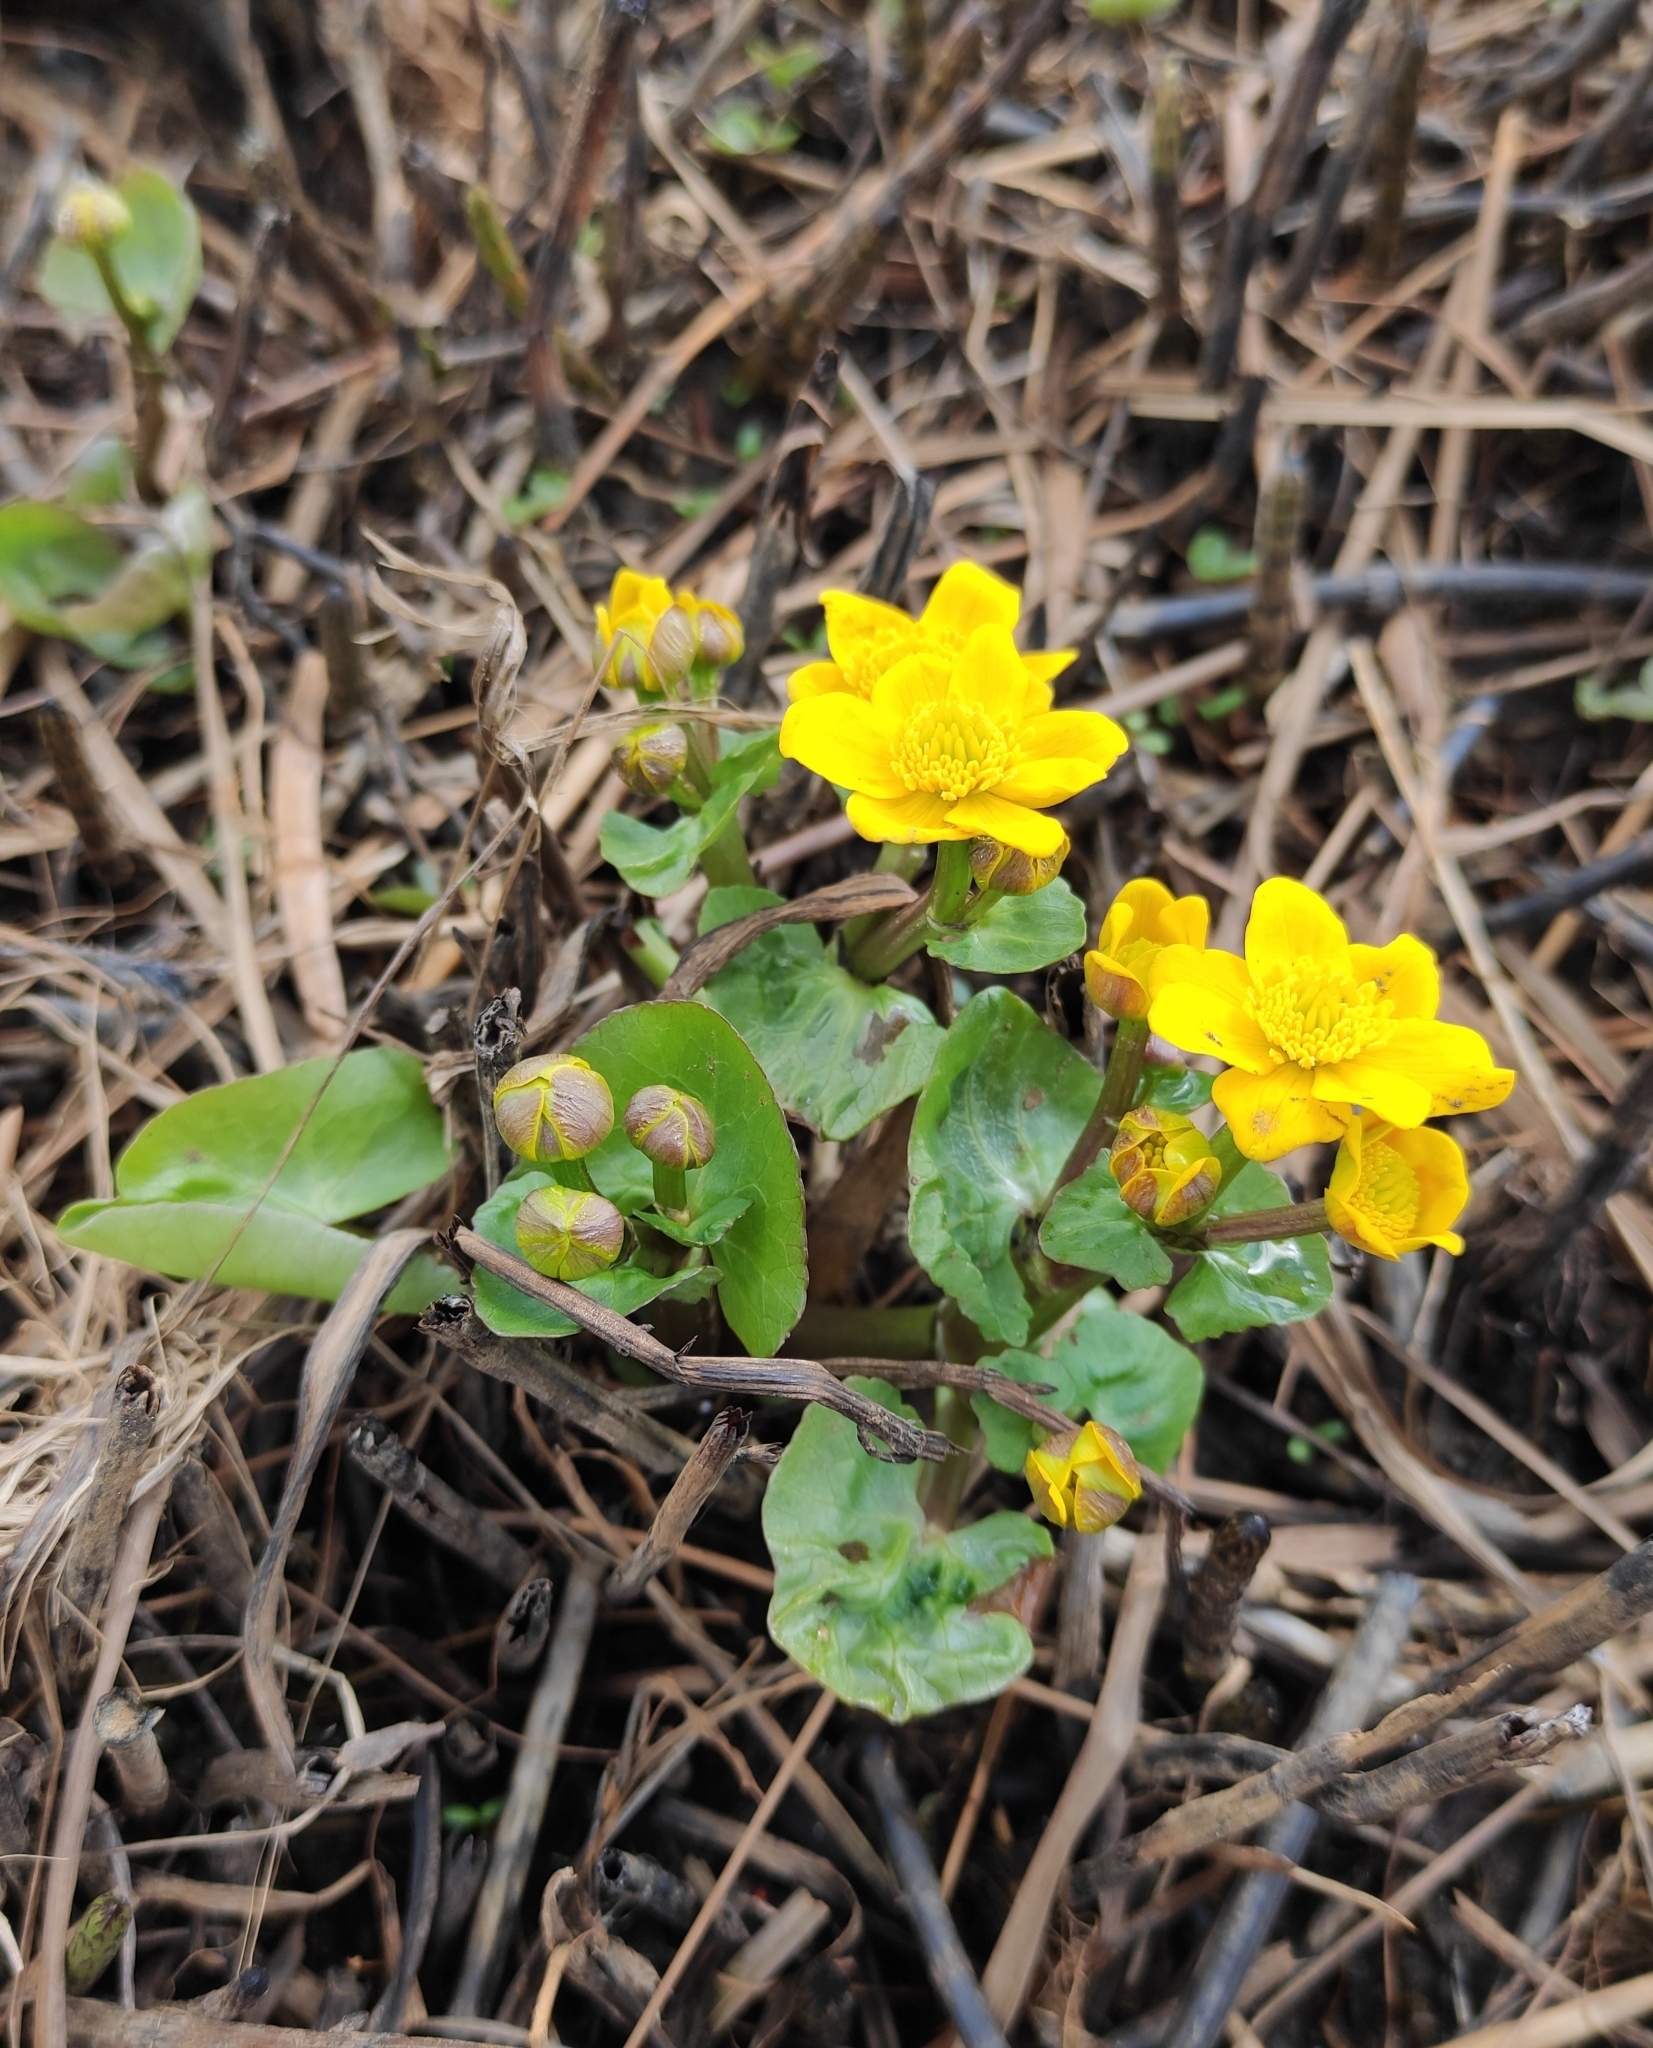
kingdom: Plantae
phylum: Tracheophyta
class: Magnoliopsida
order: Ranunculales
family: Ranunculaceae
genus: Caltha
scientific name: Caltha palustris
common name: Marsh marigold
